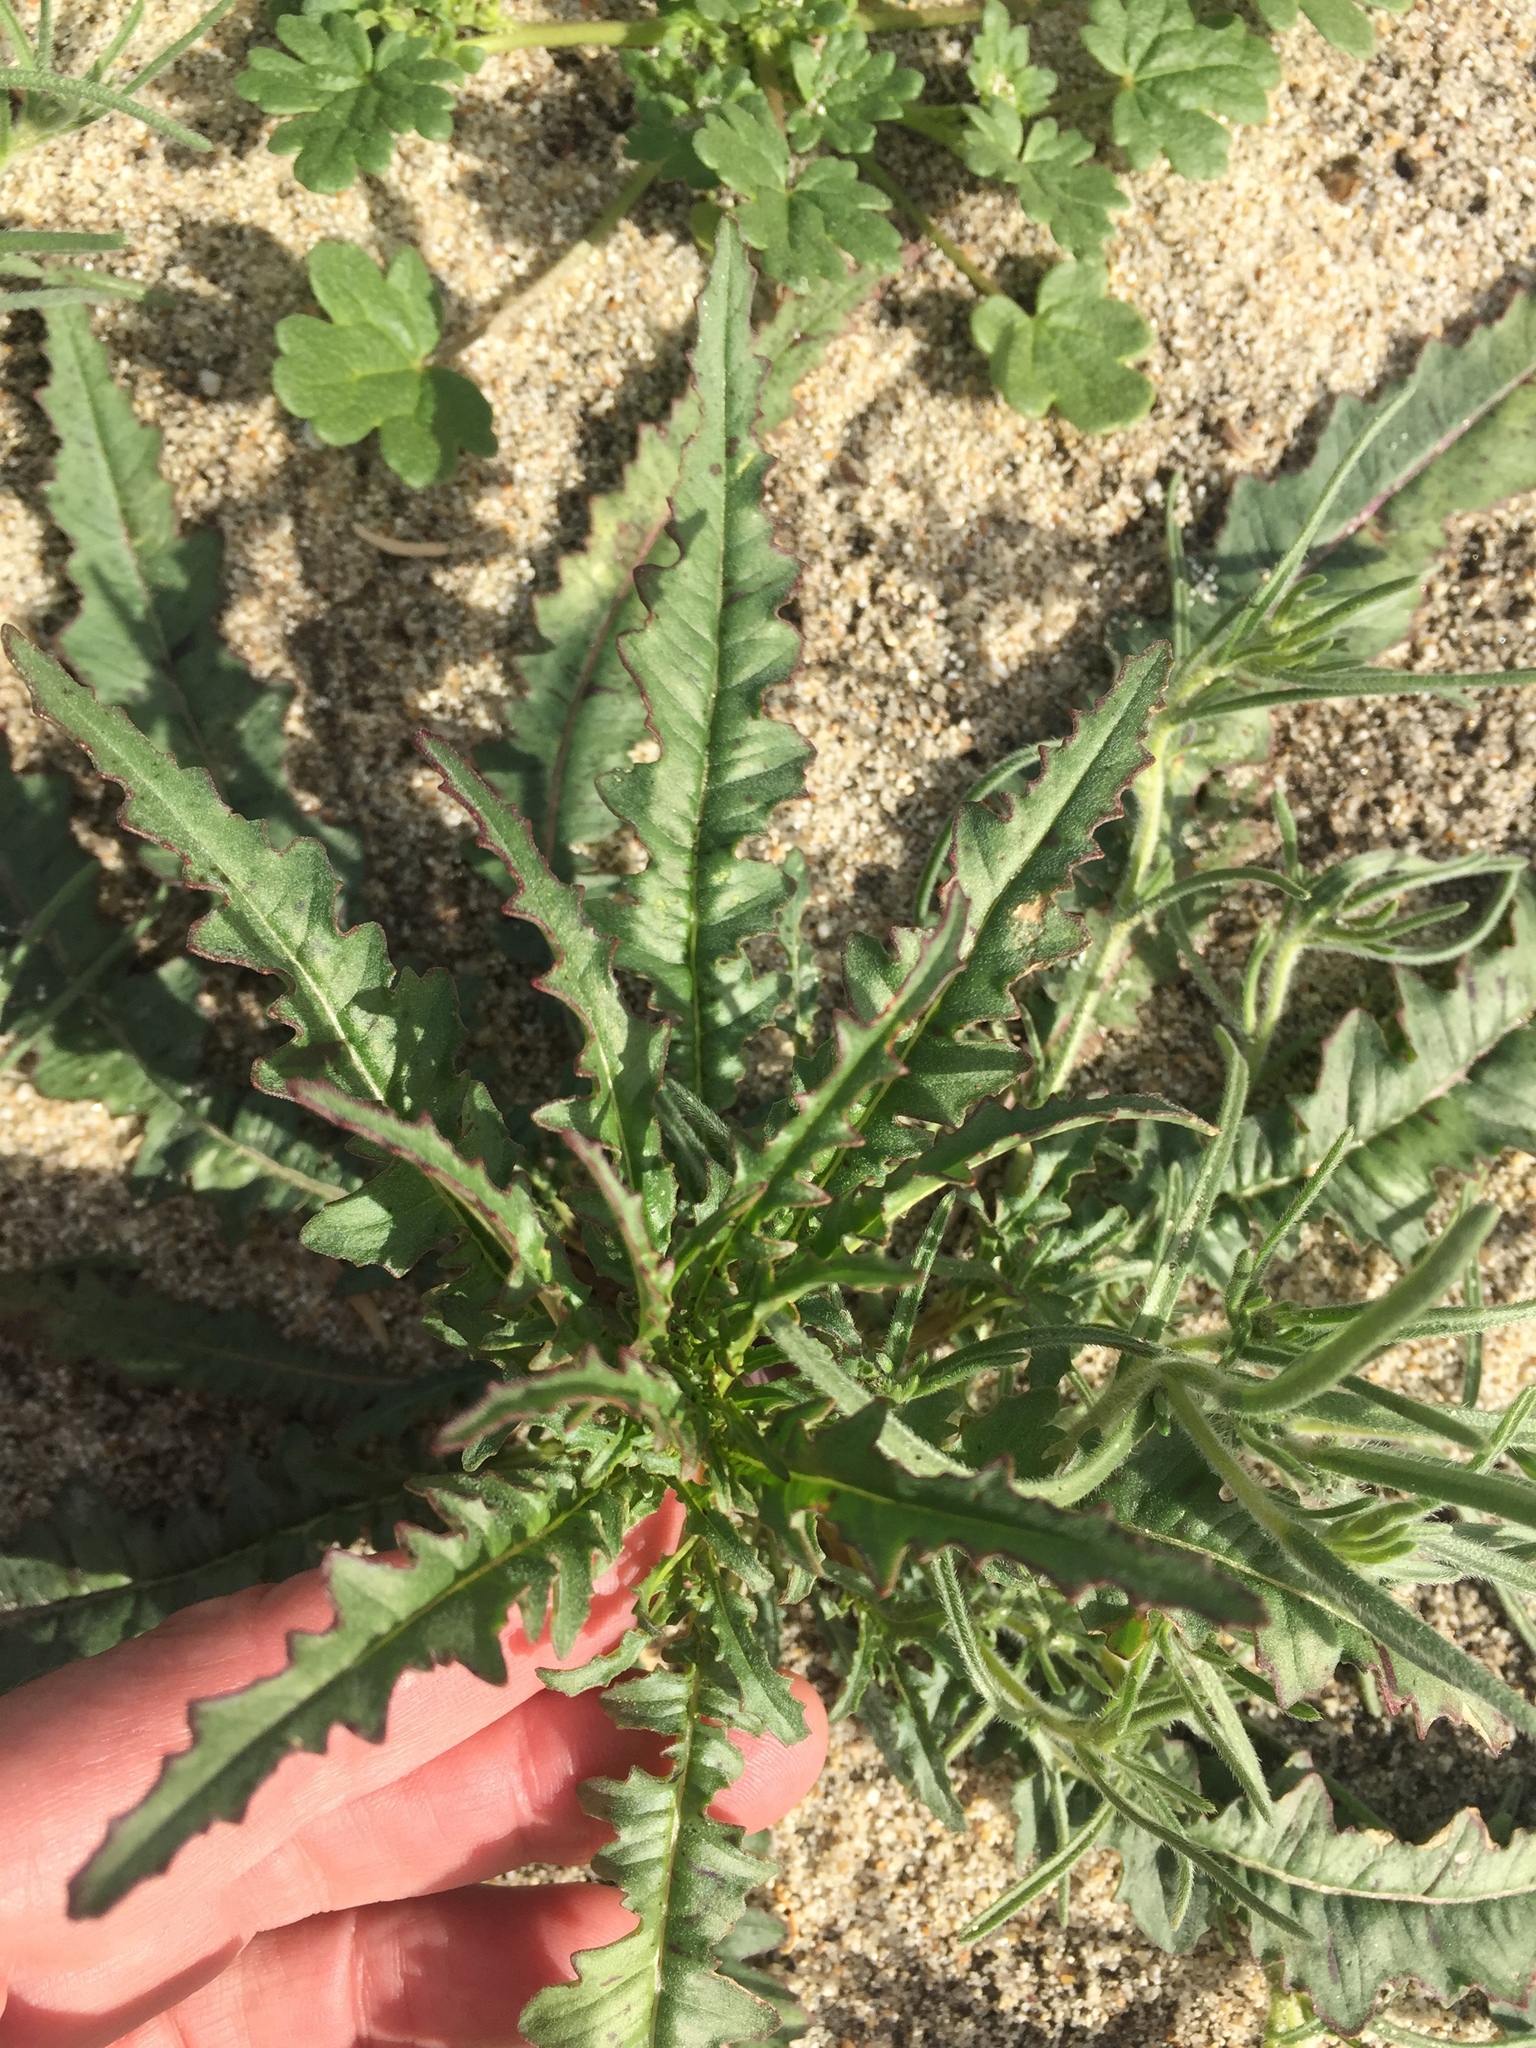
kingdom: Plantae
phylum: Tracheophyta
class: Magnoliopsida
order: Myrtales
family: Onagraceae
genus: Eulobus
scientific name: Eulobus californicus
